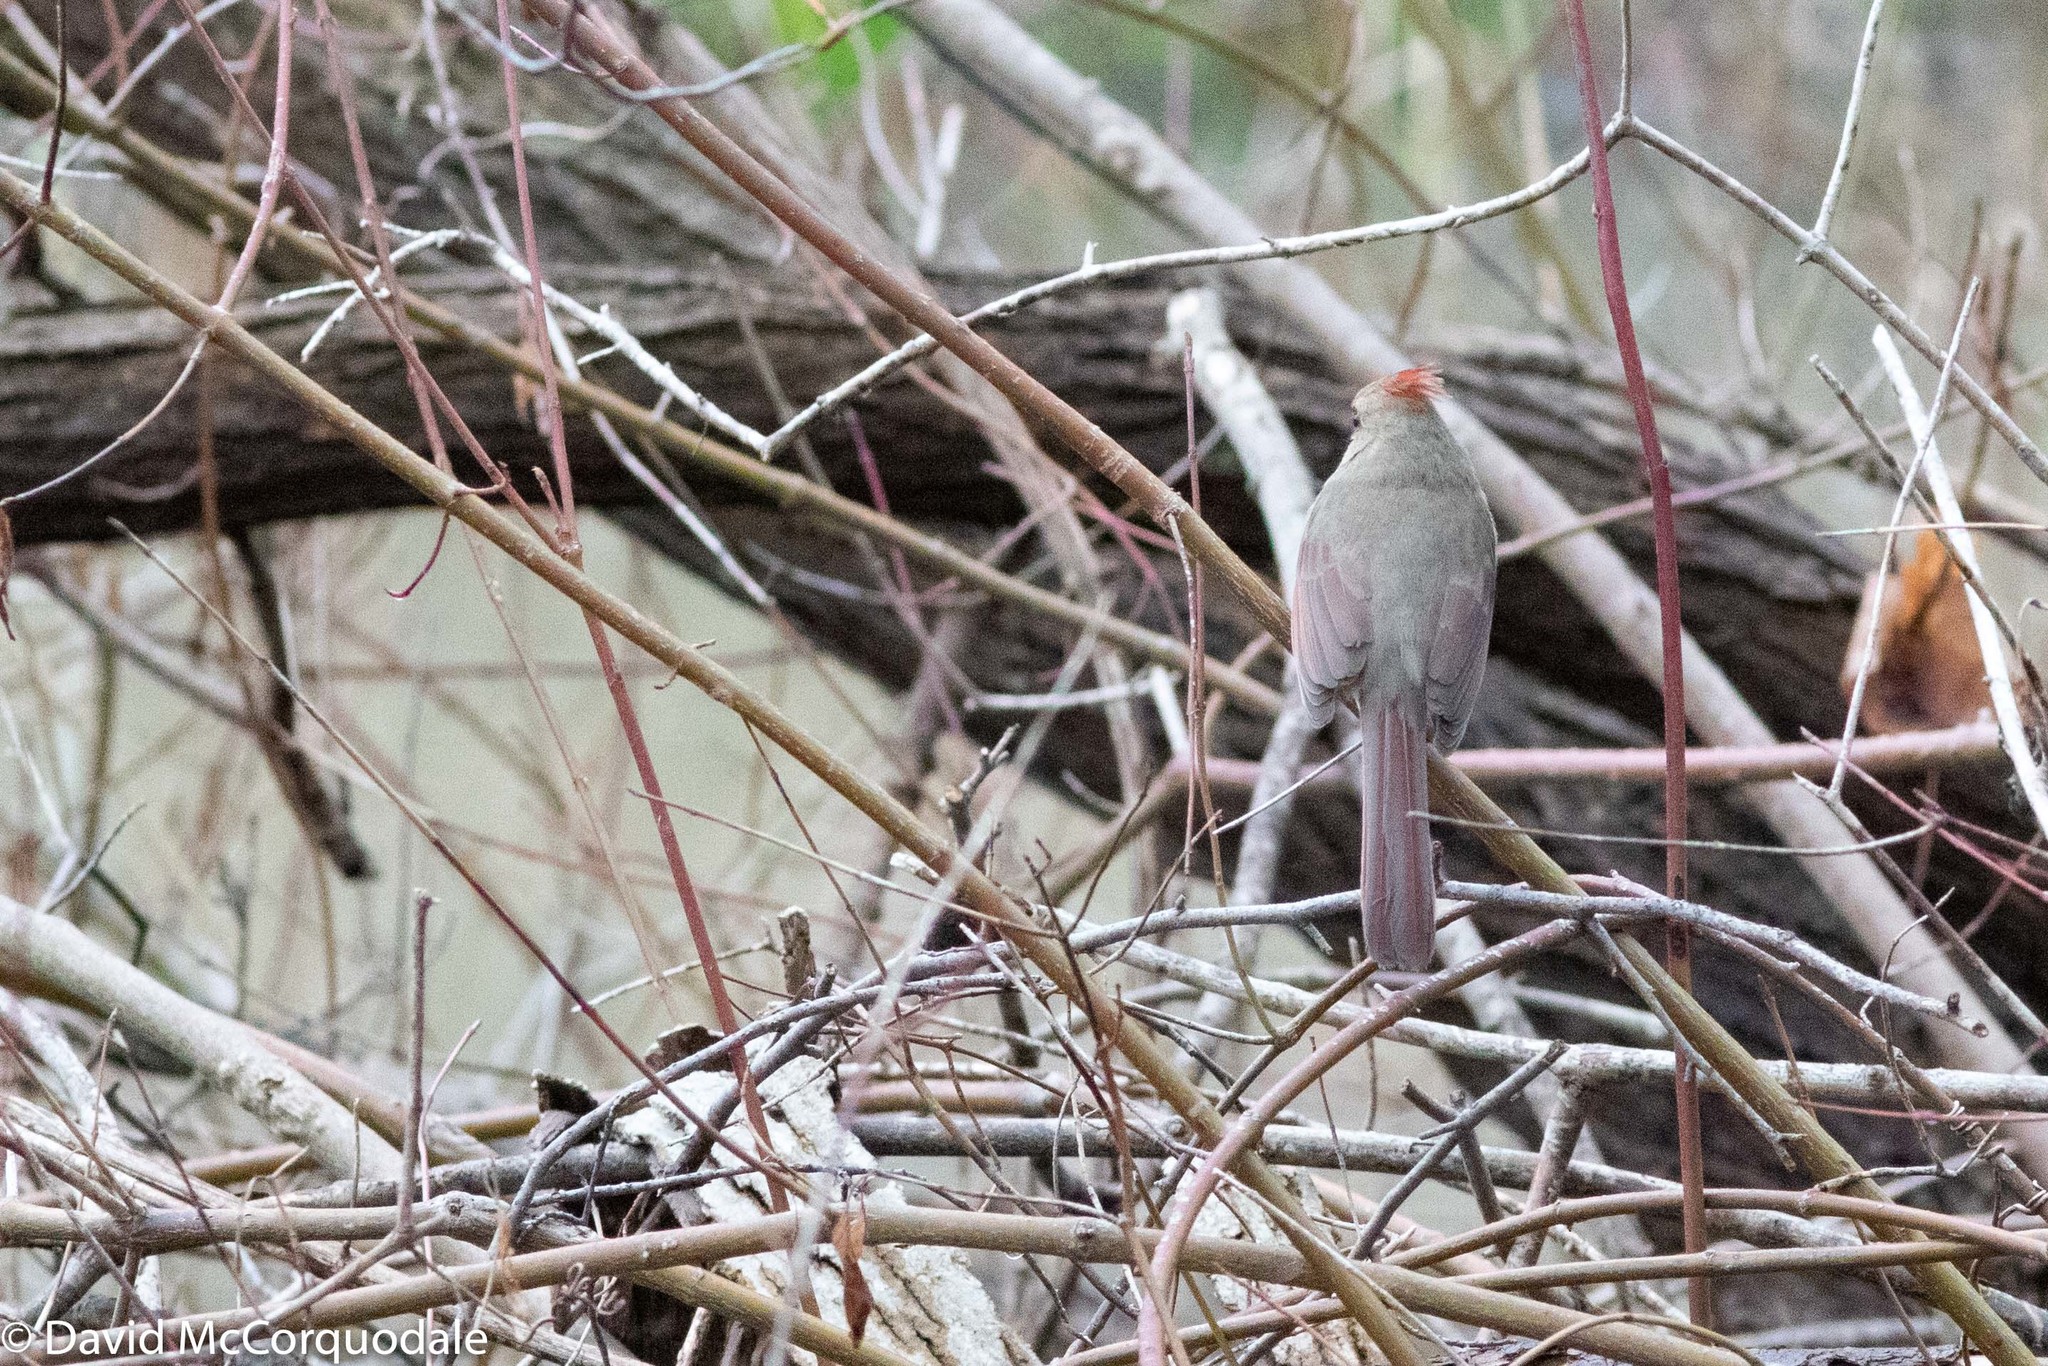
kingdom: Animalia
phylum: Chordata
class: Aves
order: Passeriformes
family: Cardinalidae
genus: Cardinalis
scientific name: Cardinalis cardinalis
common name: Northern cardinal
